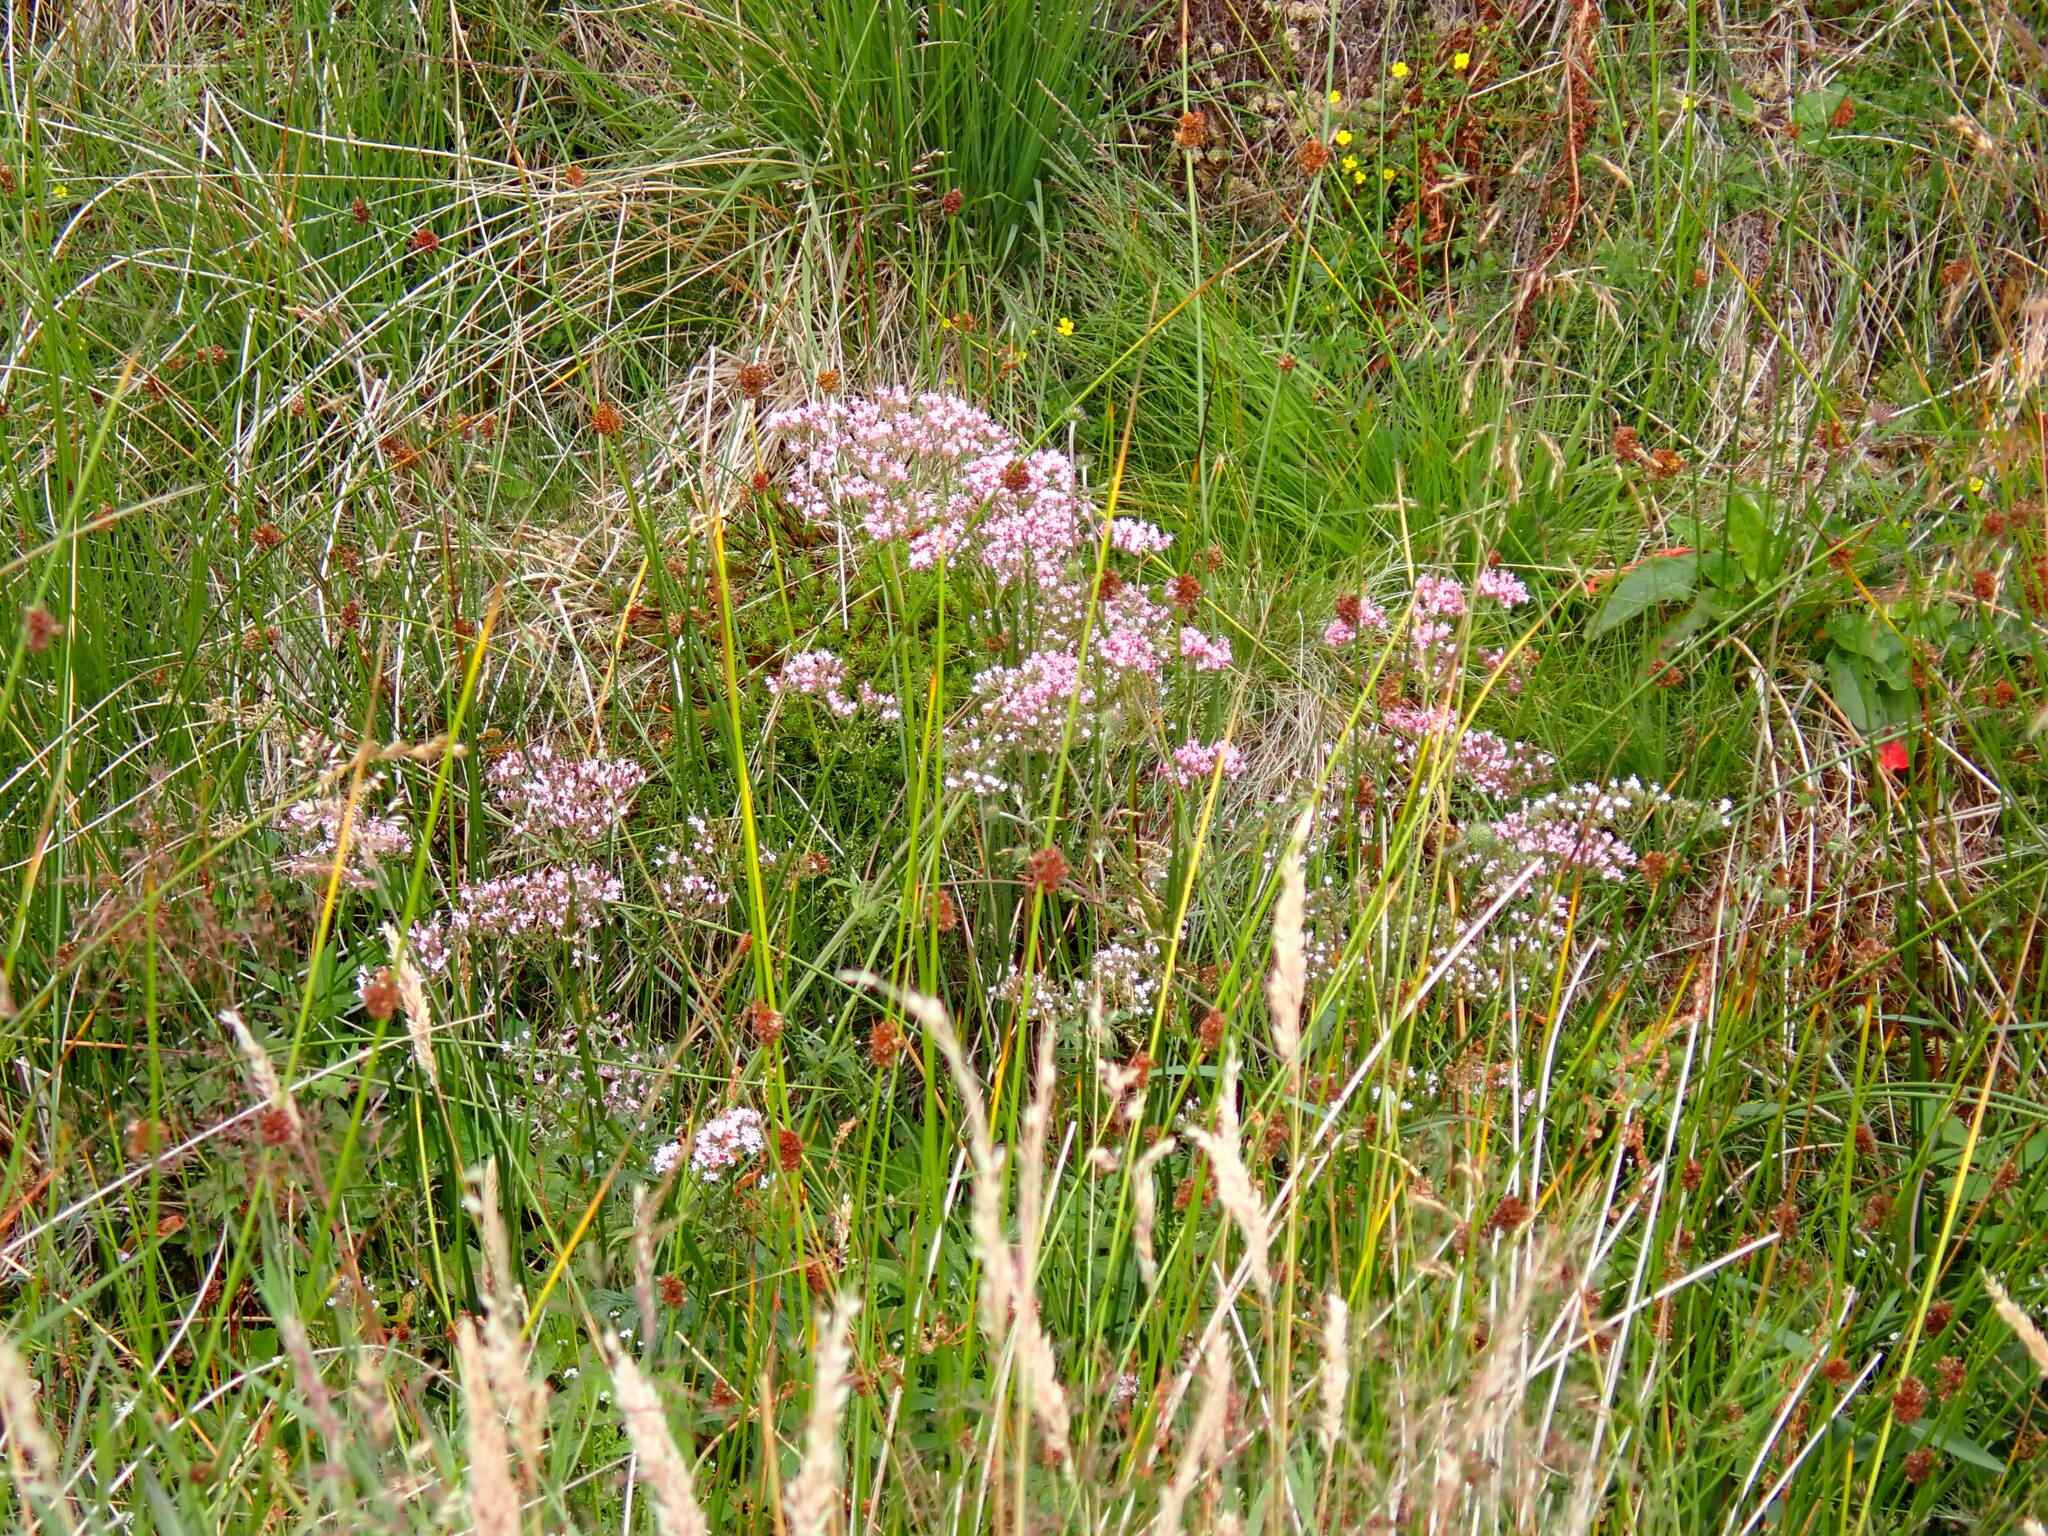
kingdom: Plantae
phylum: Tracheophyta
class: Magnoliopsida
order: Dipsacales
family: Caprifoliaceae
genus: Valeriana
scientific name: Valeriana officinalis
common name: Common valerian
